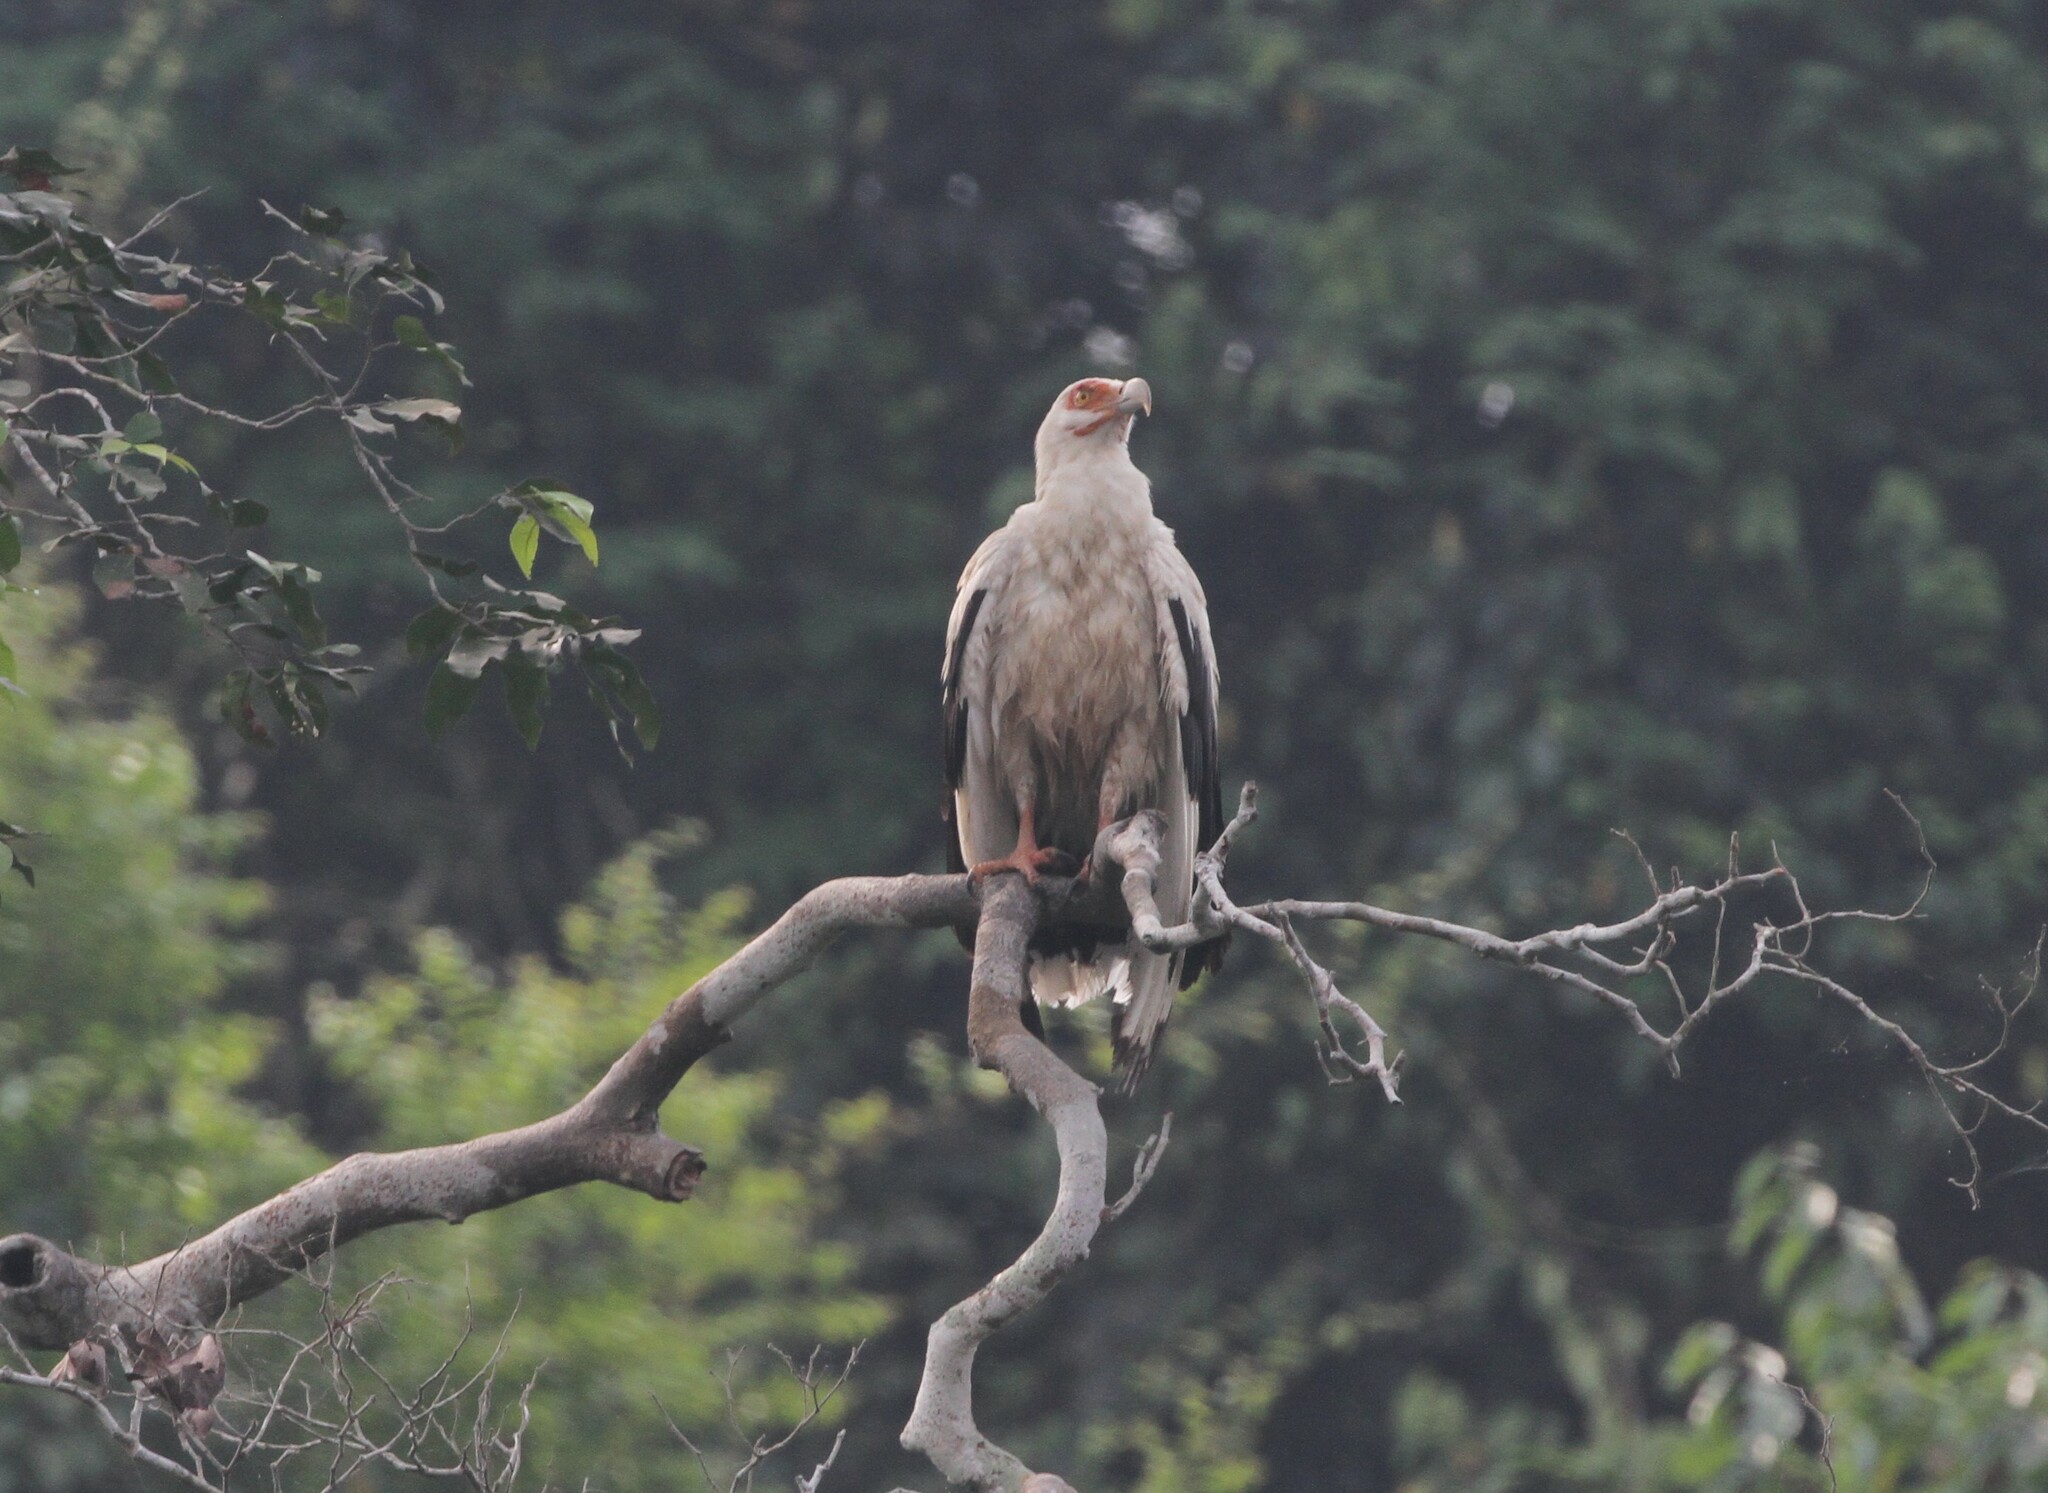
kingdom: Animalia
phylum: Chordata
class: Aves
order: Accipitriformes
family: Accipitridae
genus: Gypohierax
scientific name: Gypohierax angolensis
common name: Palm-nut vulture
